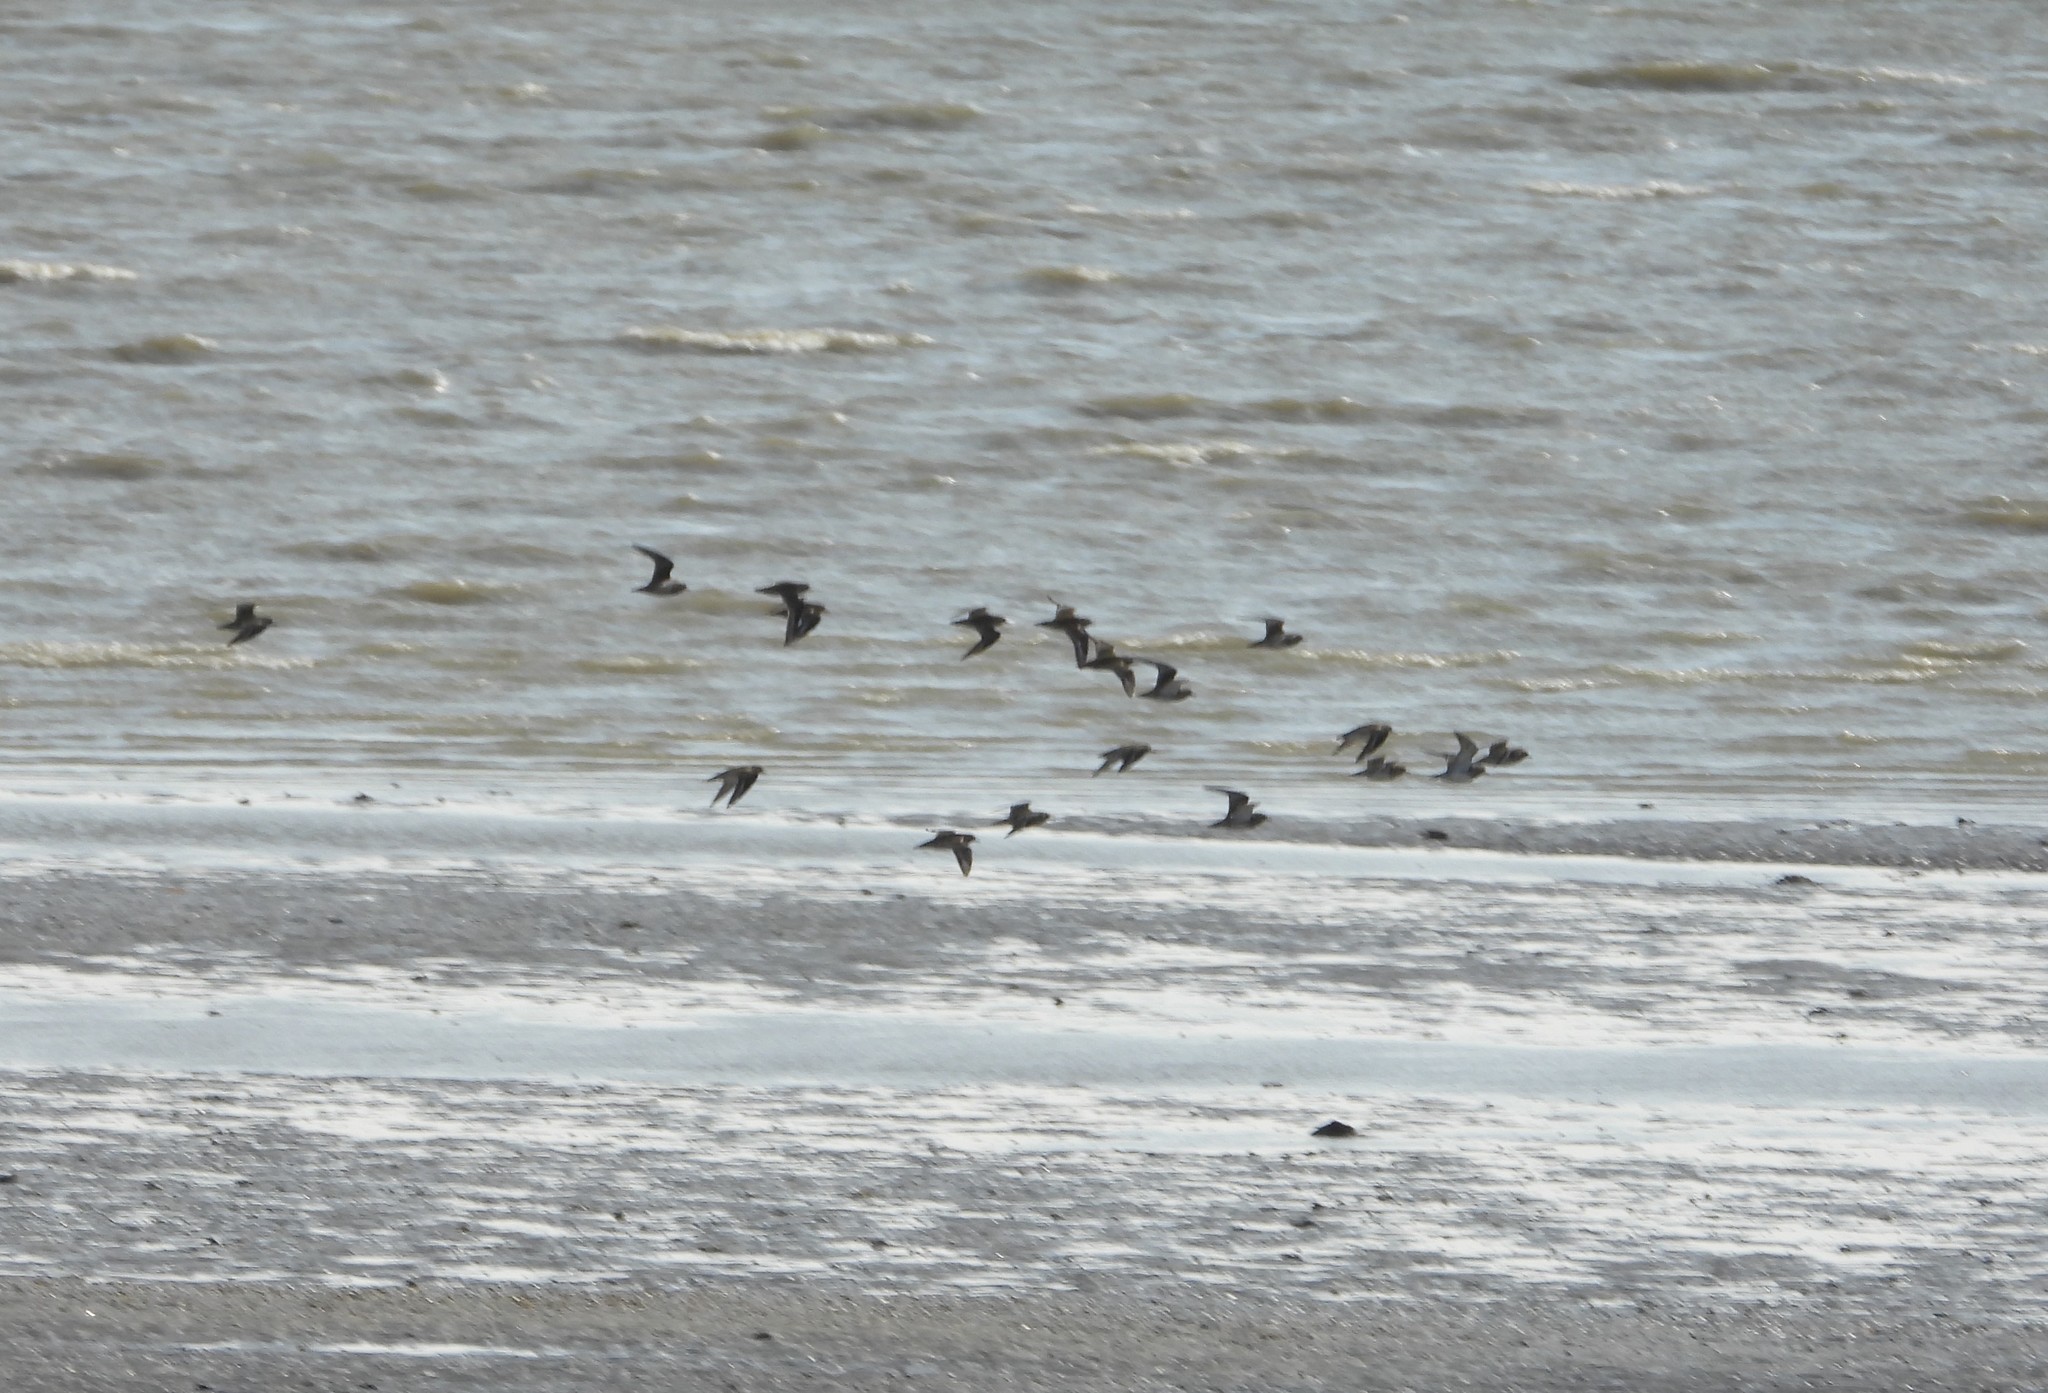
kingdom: Animalia
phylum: Chordata
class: Aves
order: Charadriiformes
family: Charadriidae
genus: Pluvialis
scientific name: Pluvialis apricaria
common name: European golden plover
